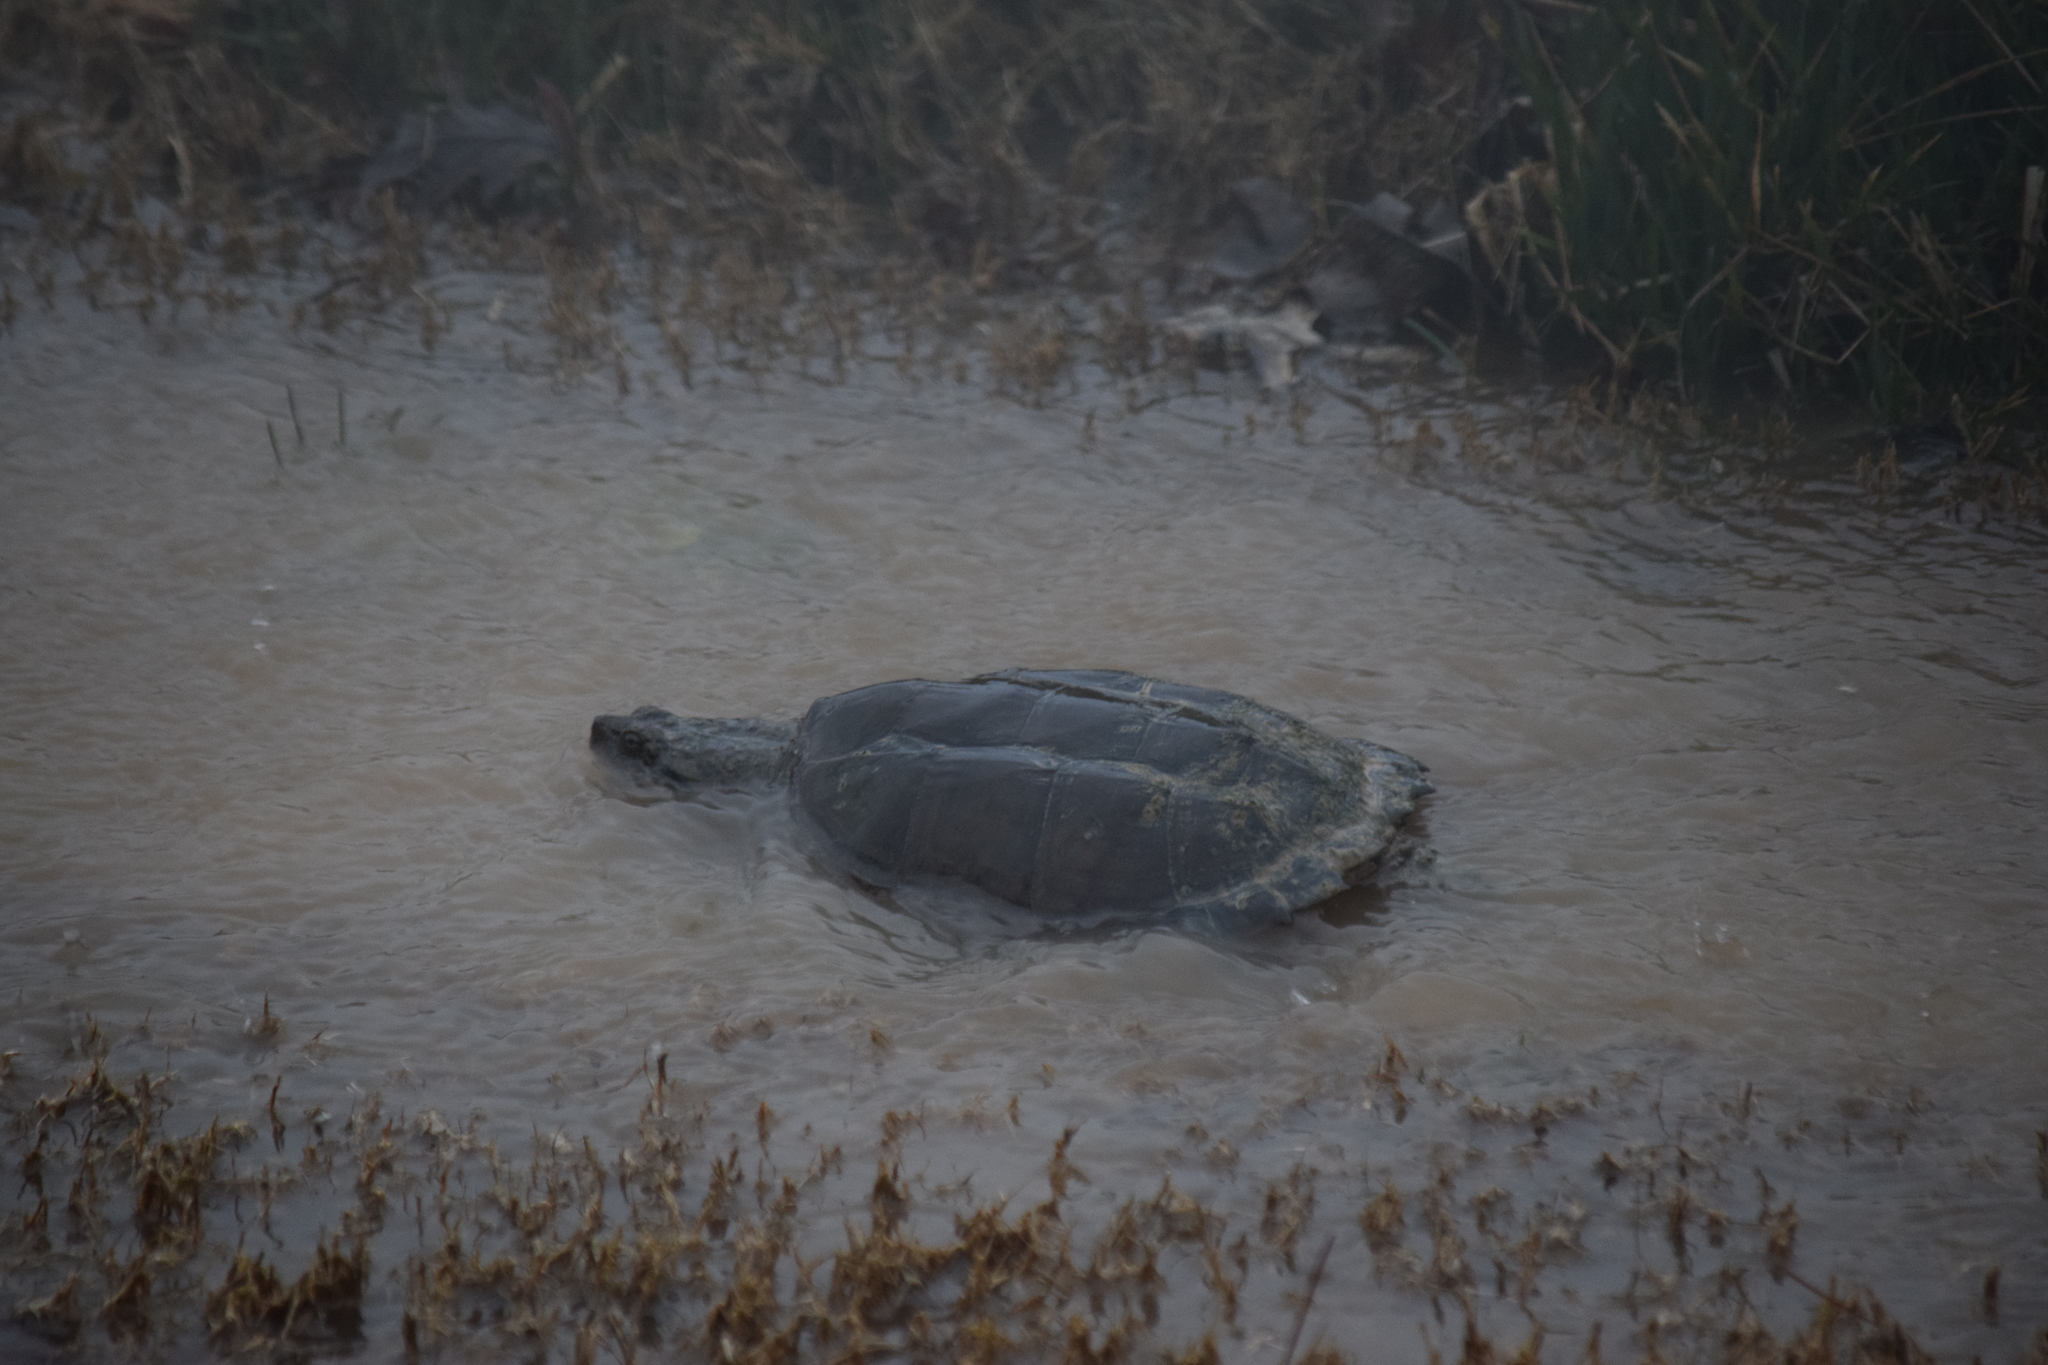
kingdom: Animalia
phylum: Chordata
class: Testudines
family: Chelydridae
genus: Chelydra
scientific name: Chelydra serpentina
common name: Common snapping turtle
